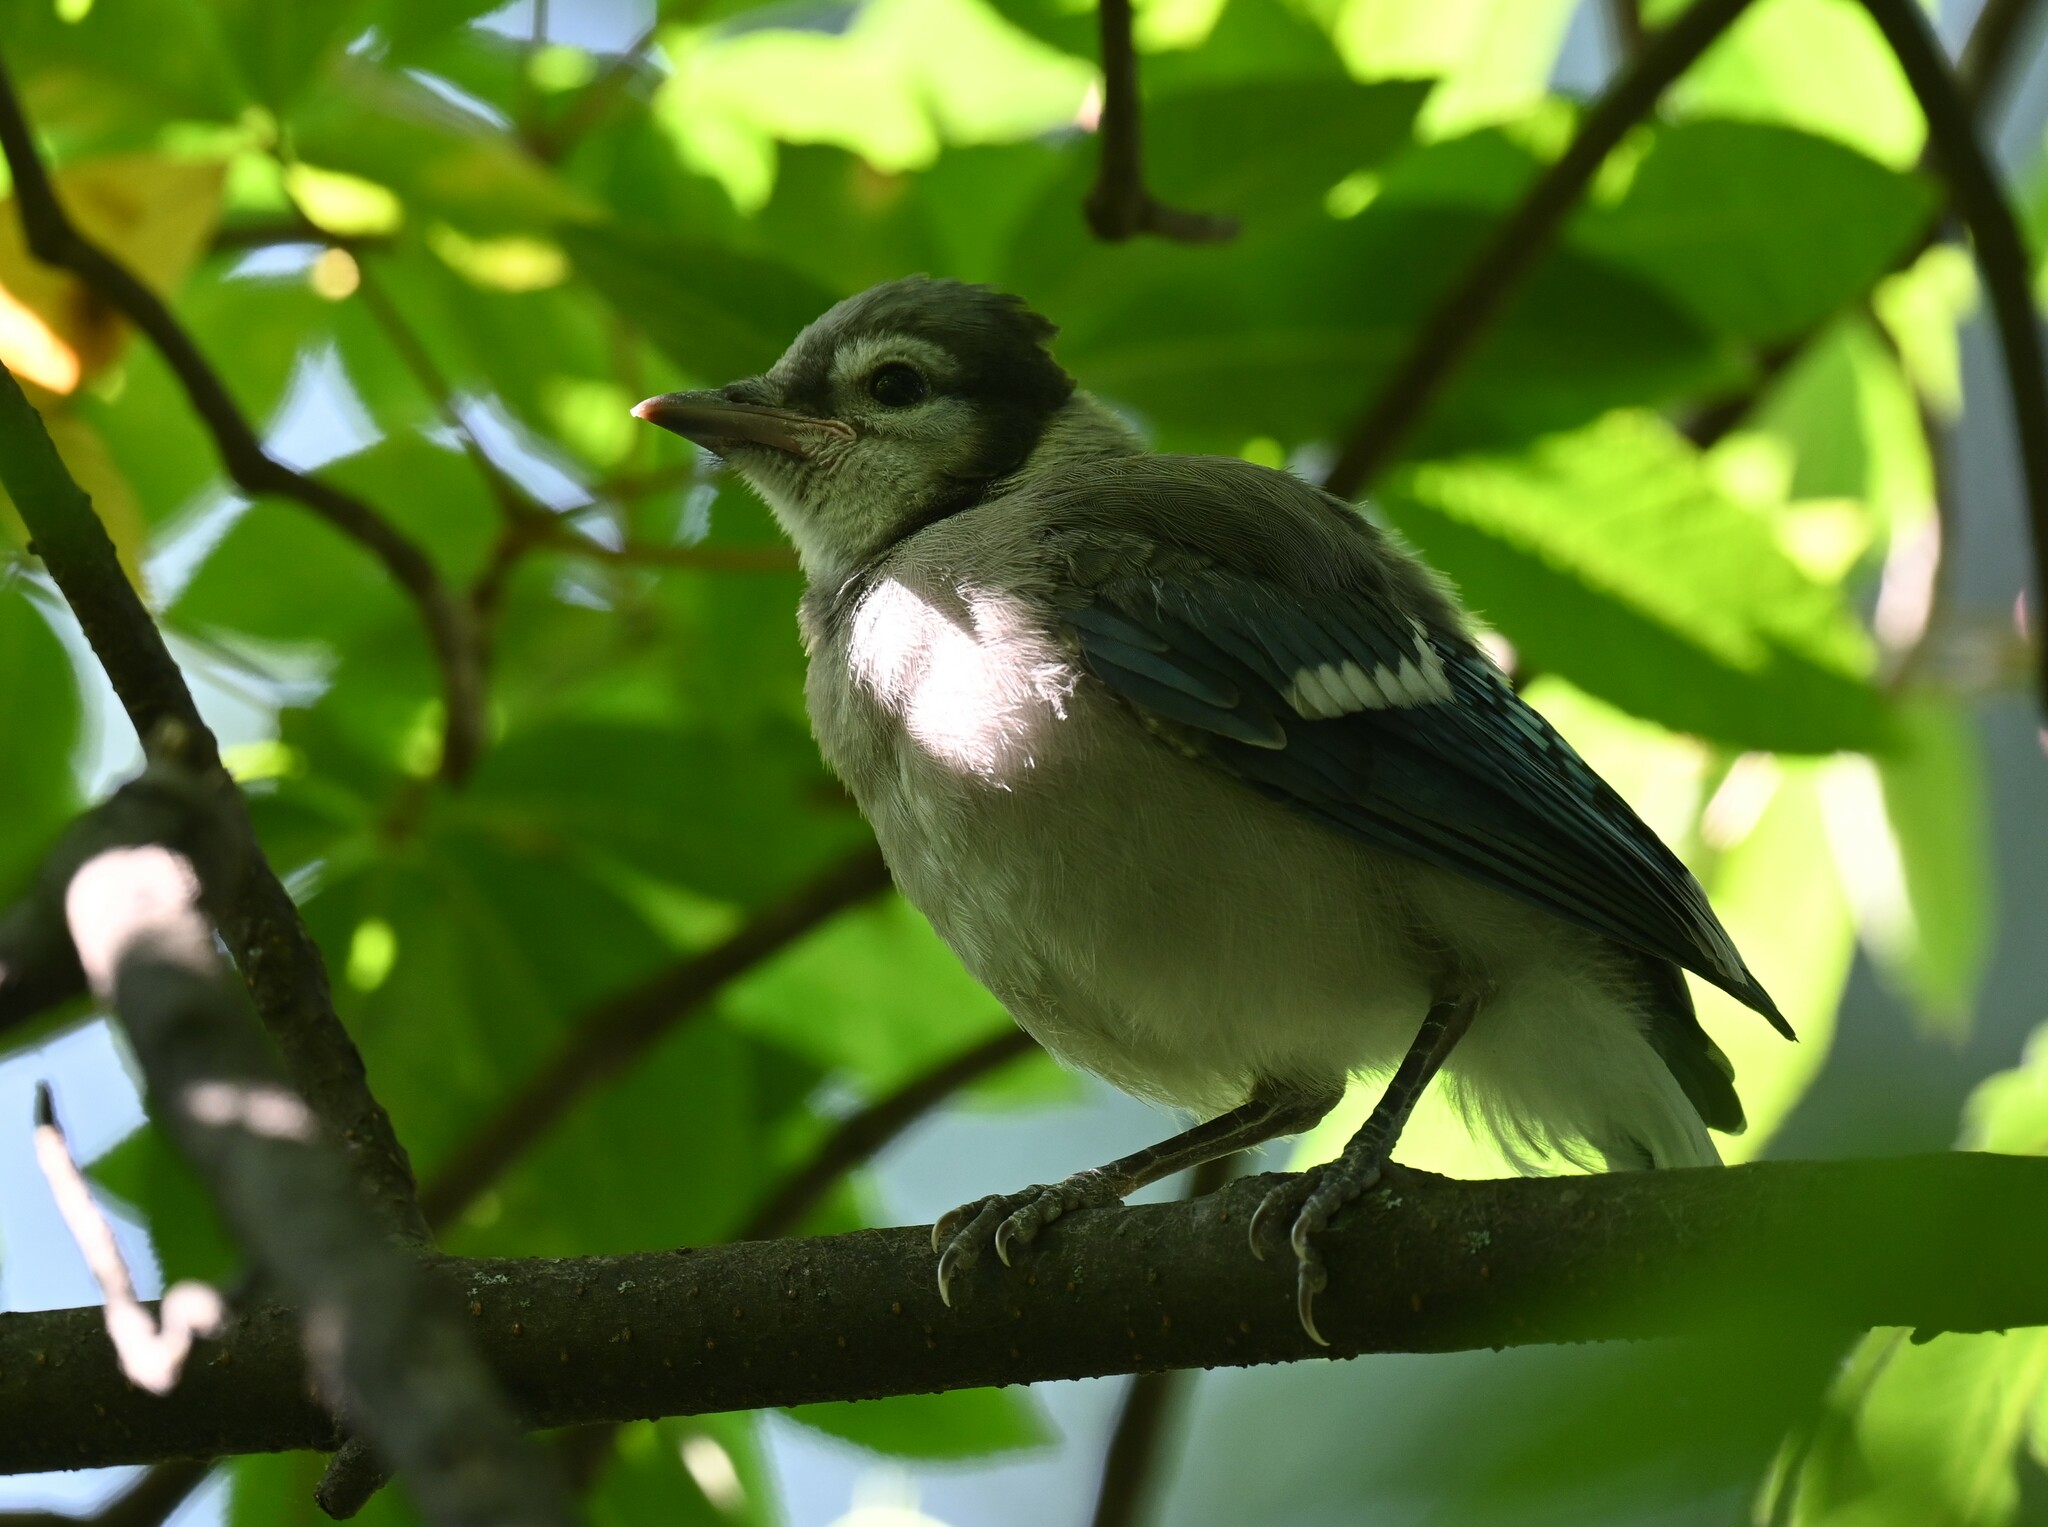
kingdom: Animalia
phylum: Chordata
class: Aves
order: Passeriformes
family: Corvidae
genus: Cyanocitta
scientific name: Cyanocitta cristata
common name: Blue jay
